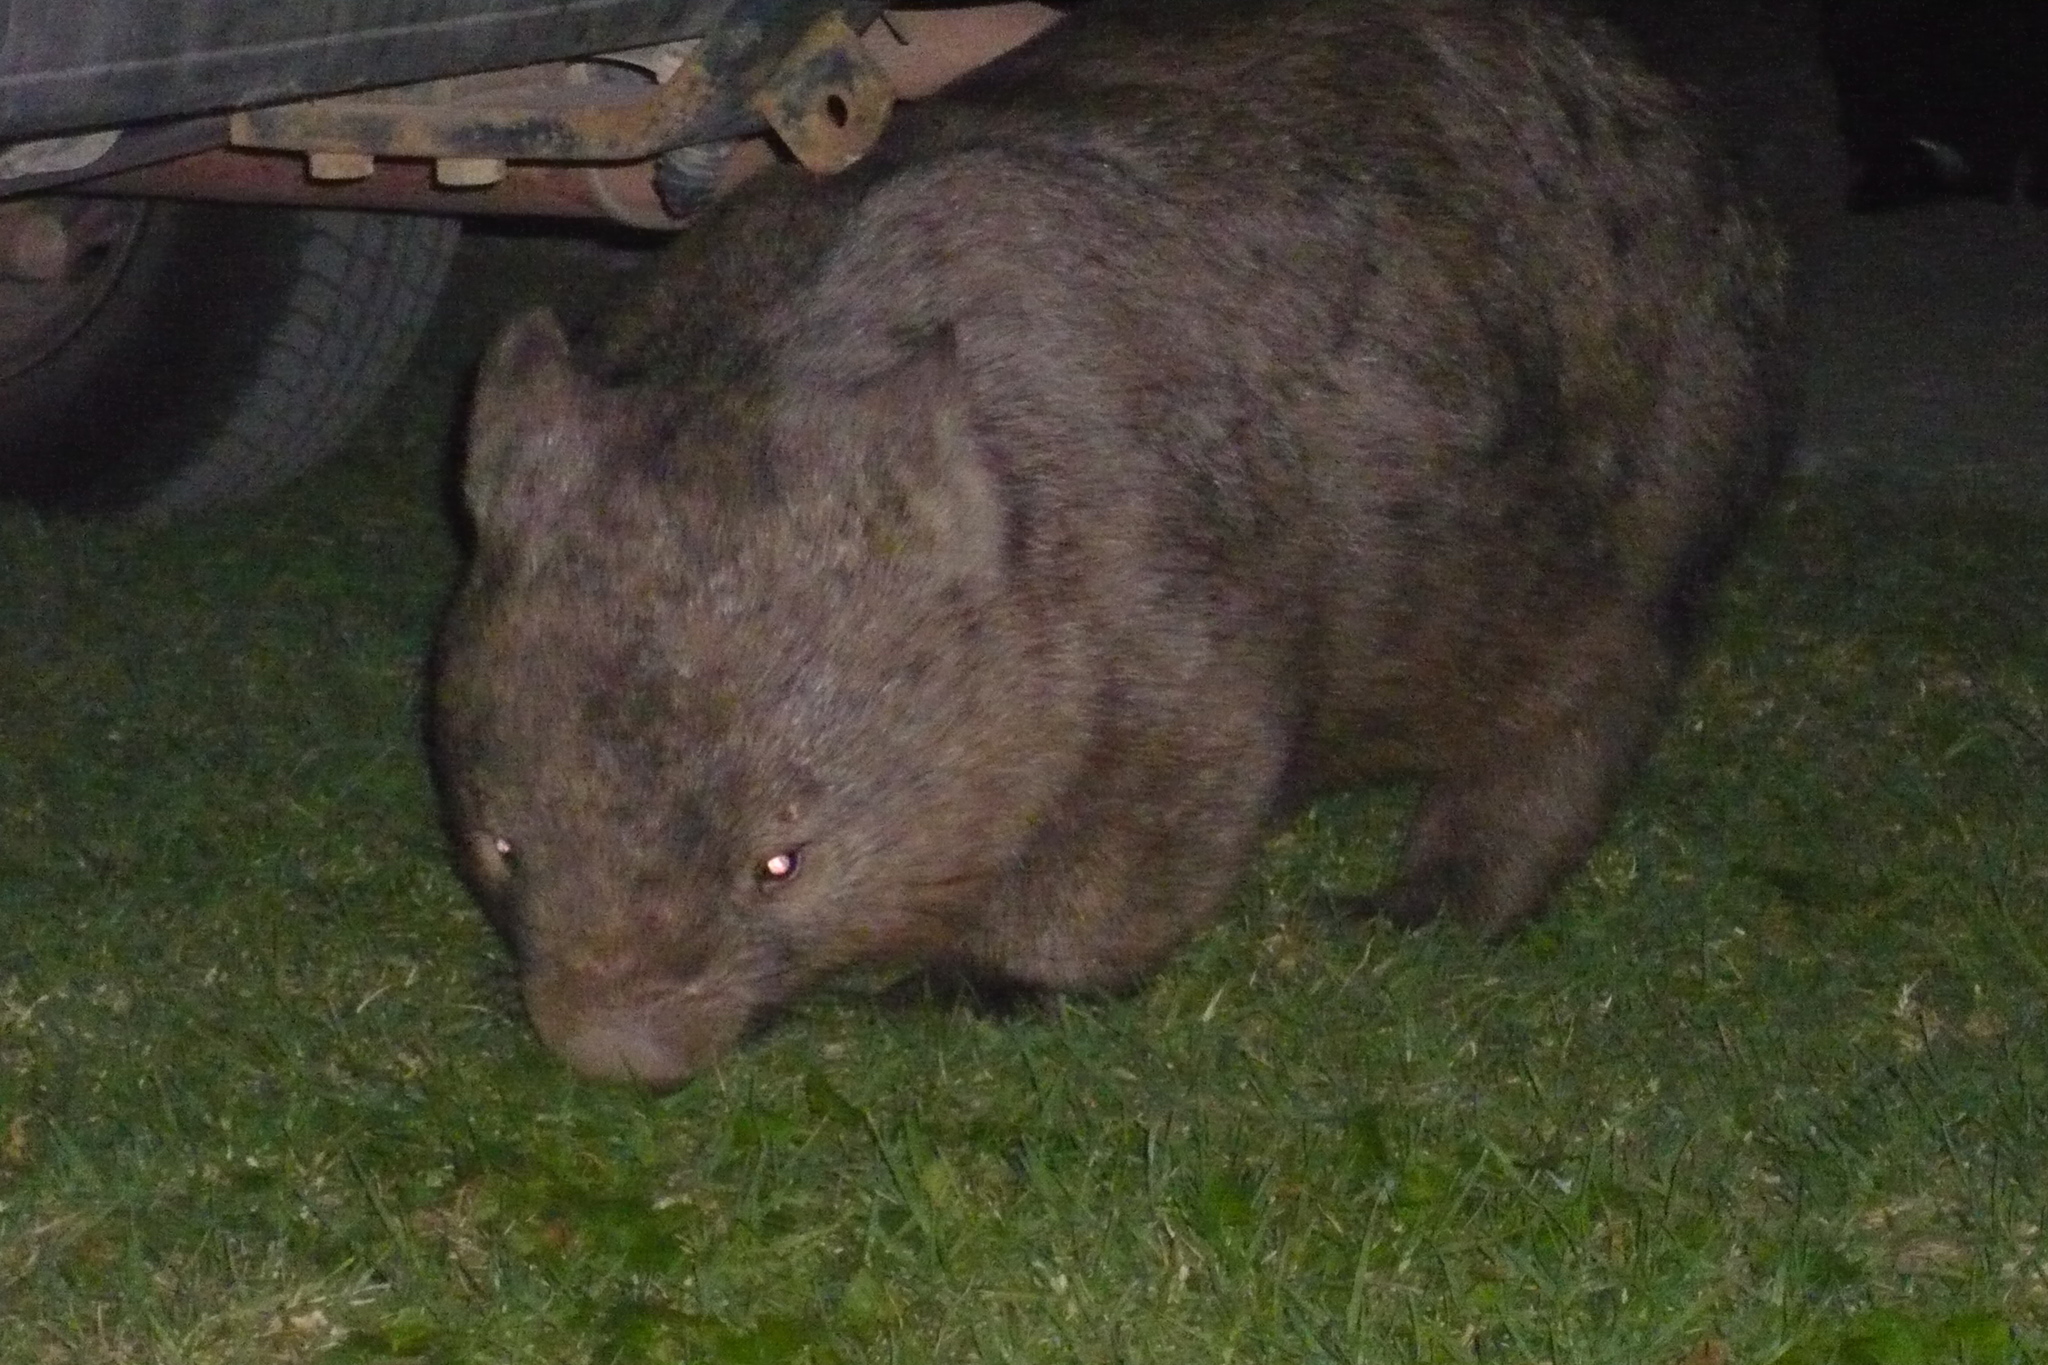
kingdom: Animalia
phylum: Chordata
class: Mammalia
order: Diprotodontia
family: Vombatidae
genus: Vombatus
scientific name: Vombatus ursinus
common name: Common wombat
